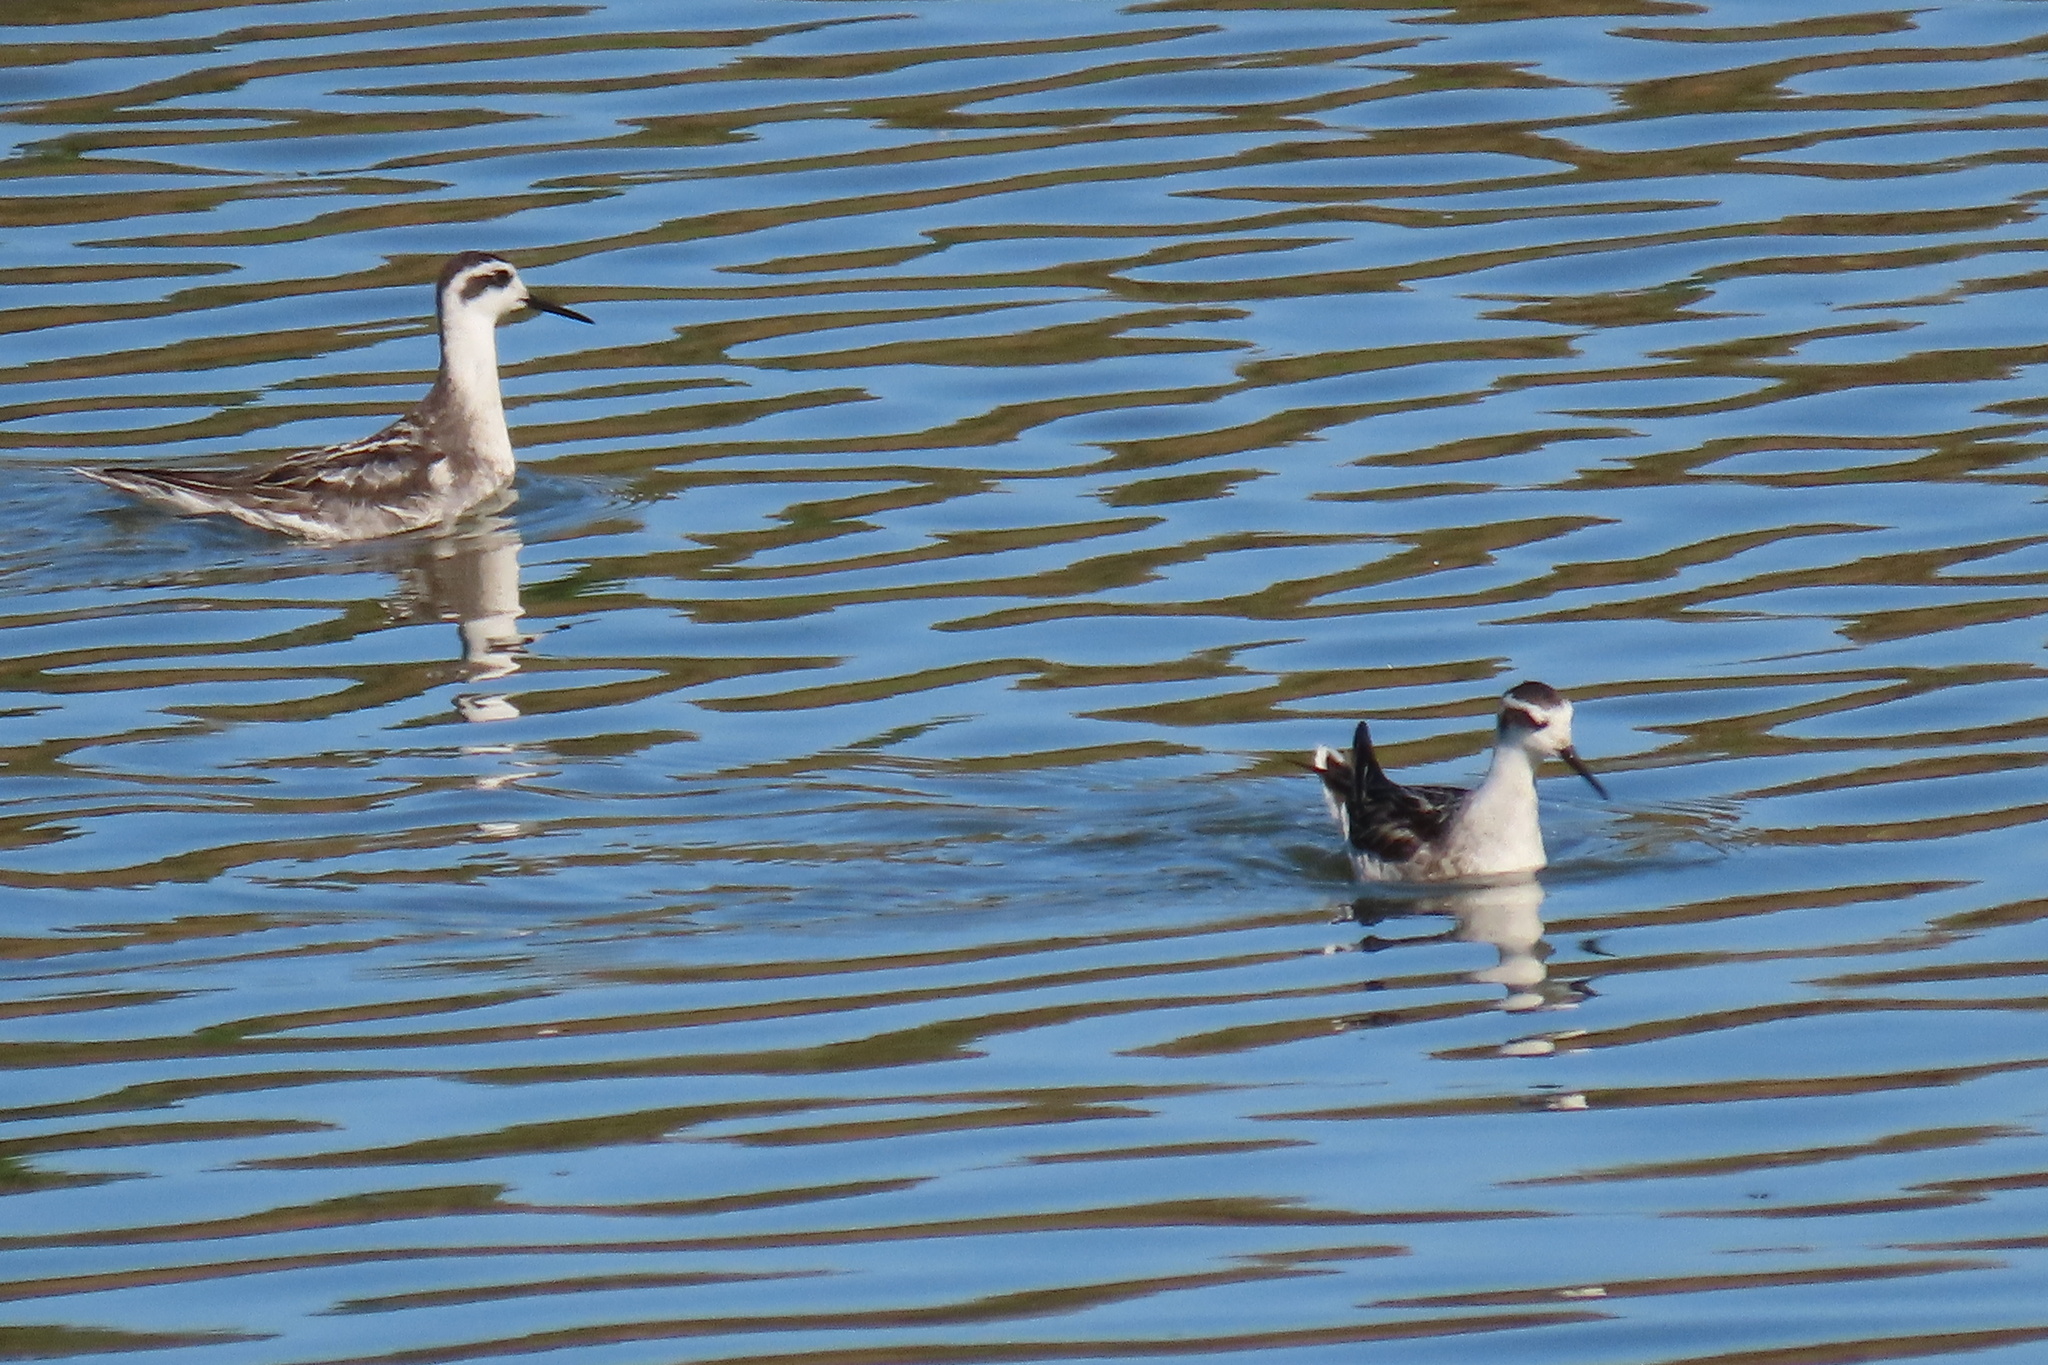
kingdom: Animalia
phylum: Chordata
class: Aves
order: Charadriiformes
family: Scolopacidae
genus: Phalaropus
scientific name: Phalaropus lobatus
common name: Red-necked phalarope
